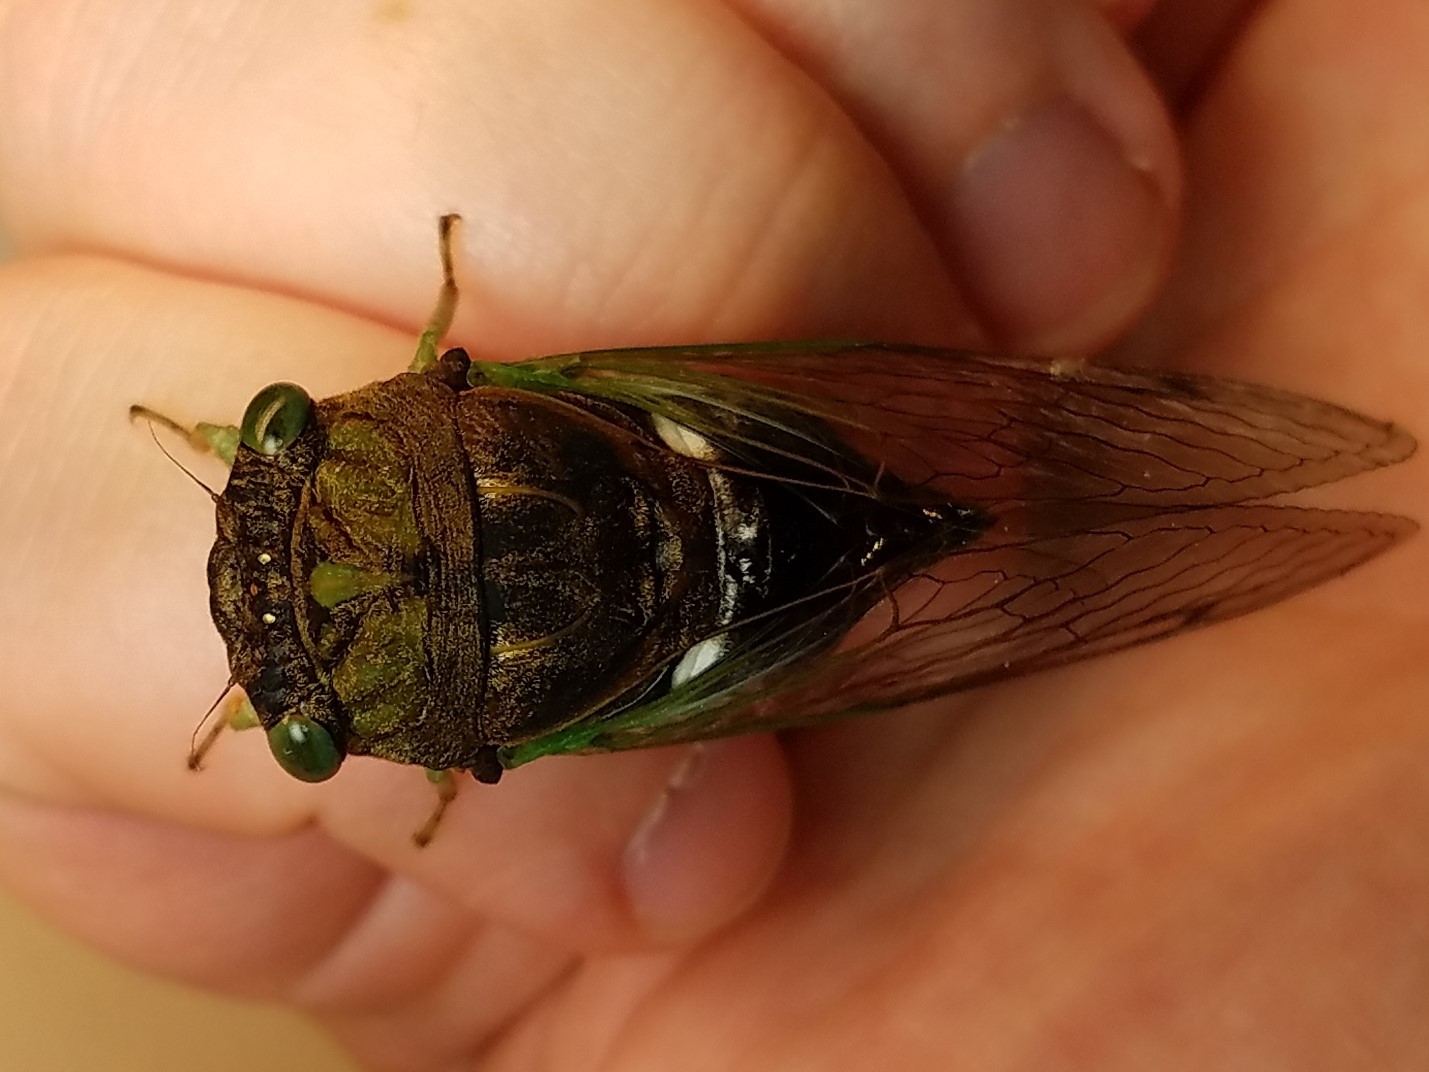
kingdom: Animalia
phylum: Arthropoda
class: Insecta
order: Hemiptera
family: Cicadidae
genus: Neotibicen
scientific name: Neotibicen tibicen
